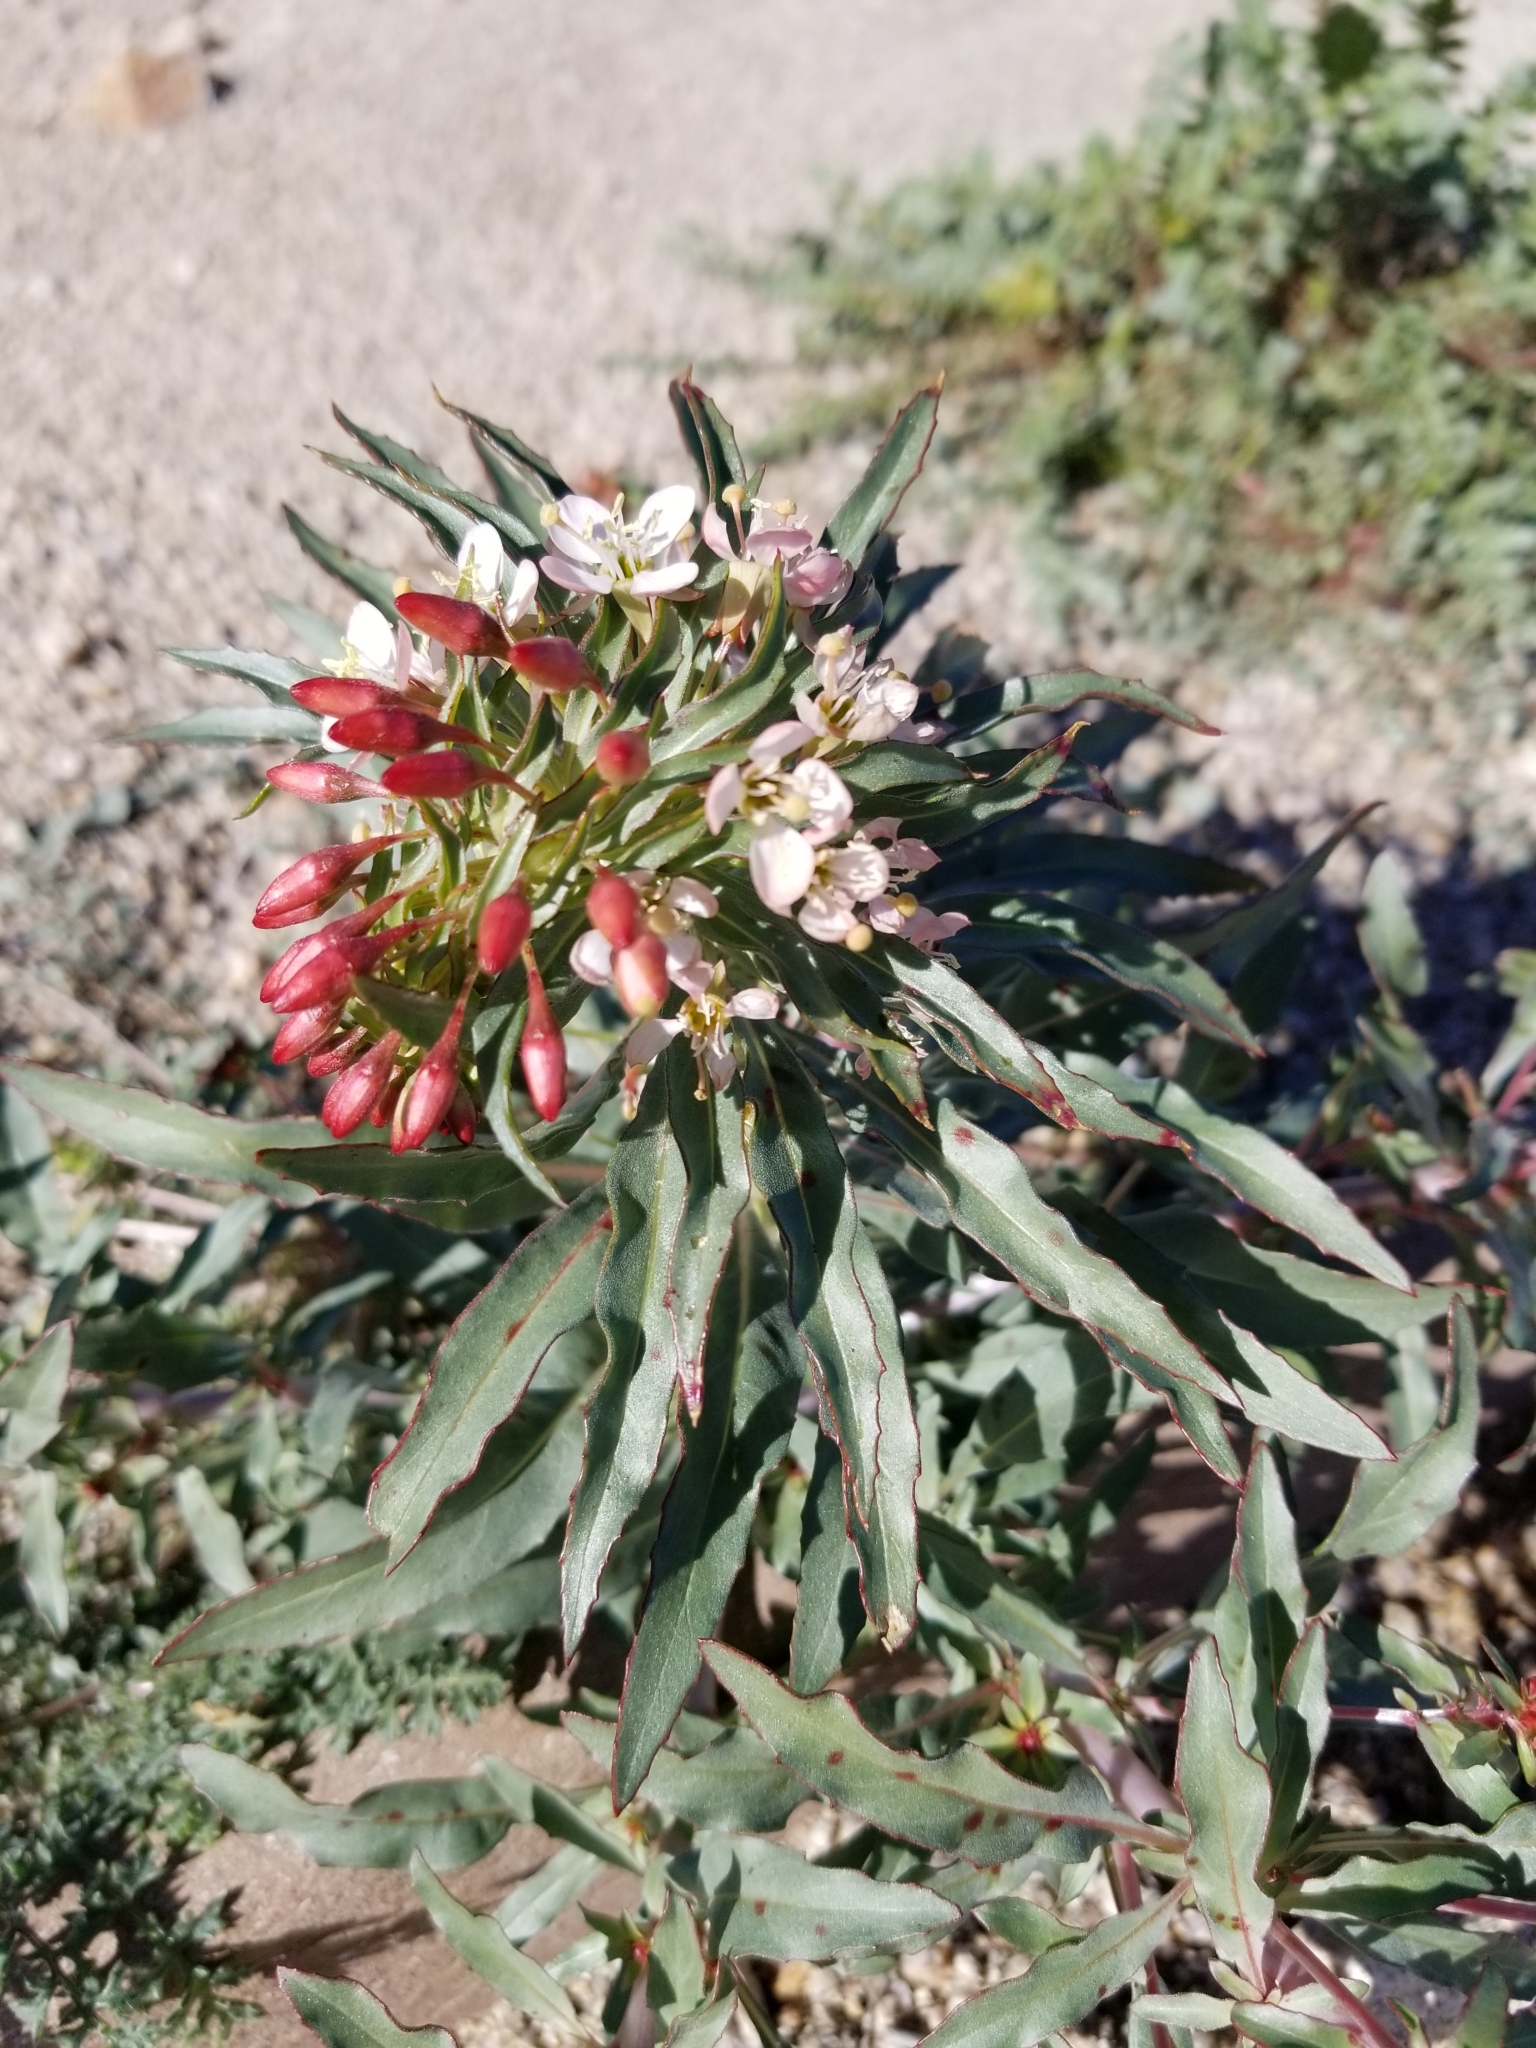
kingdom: Plantae
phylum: Tracheophyta
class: Magnoliopsida
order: Myrtales
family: Onagraceae
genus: Eremothera
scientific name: Eremothera boothii
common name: Booth's evening primrose
